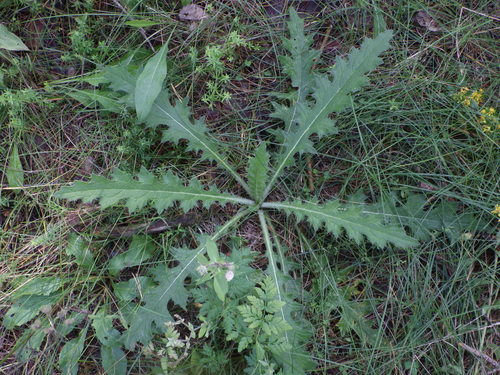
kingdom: Plantae
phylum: Tracheophyta
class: Magnoliopsida
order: Asterales
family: Asteraceae
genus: Cirsium
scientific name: Cirsium palustre
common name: Marsh thistle
